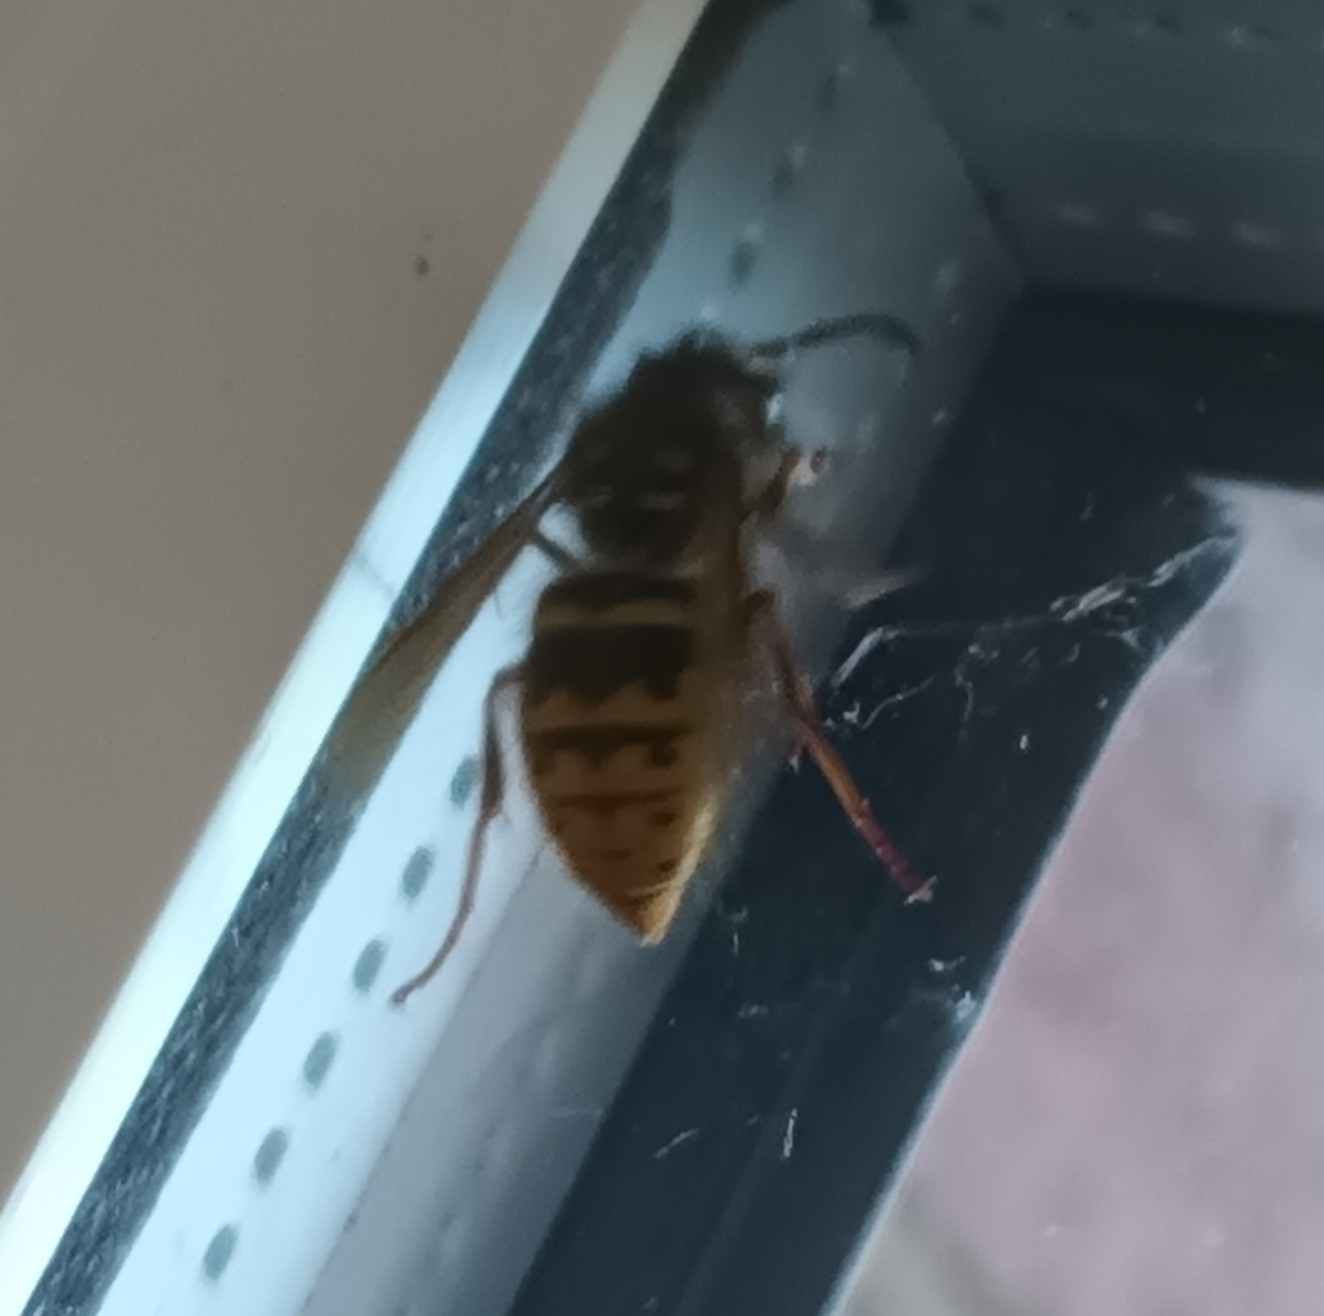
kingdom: Animalia
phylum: Arthropoda
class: Insecta
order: Hymenoptera
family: Vespidae
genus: Vespula
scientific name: Vespula vulgaris
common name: Common wasp
